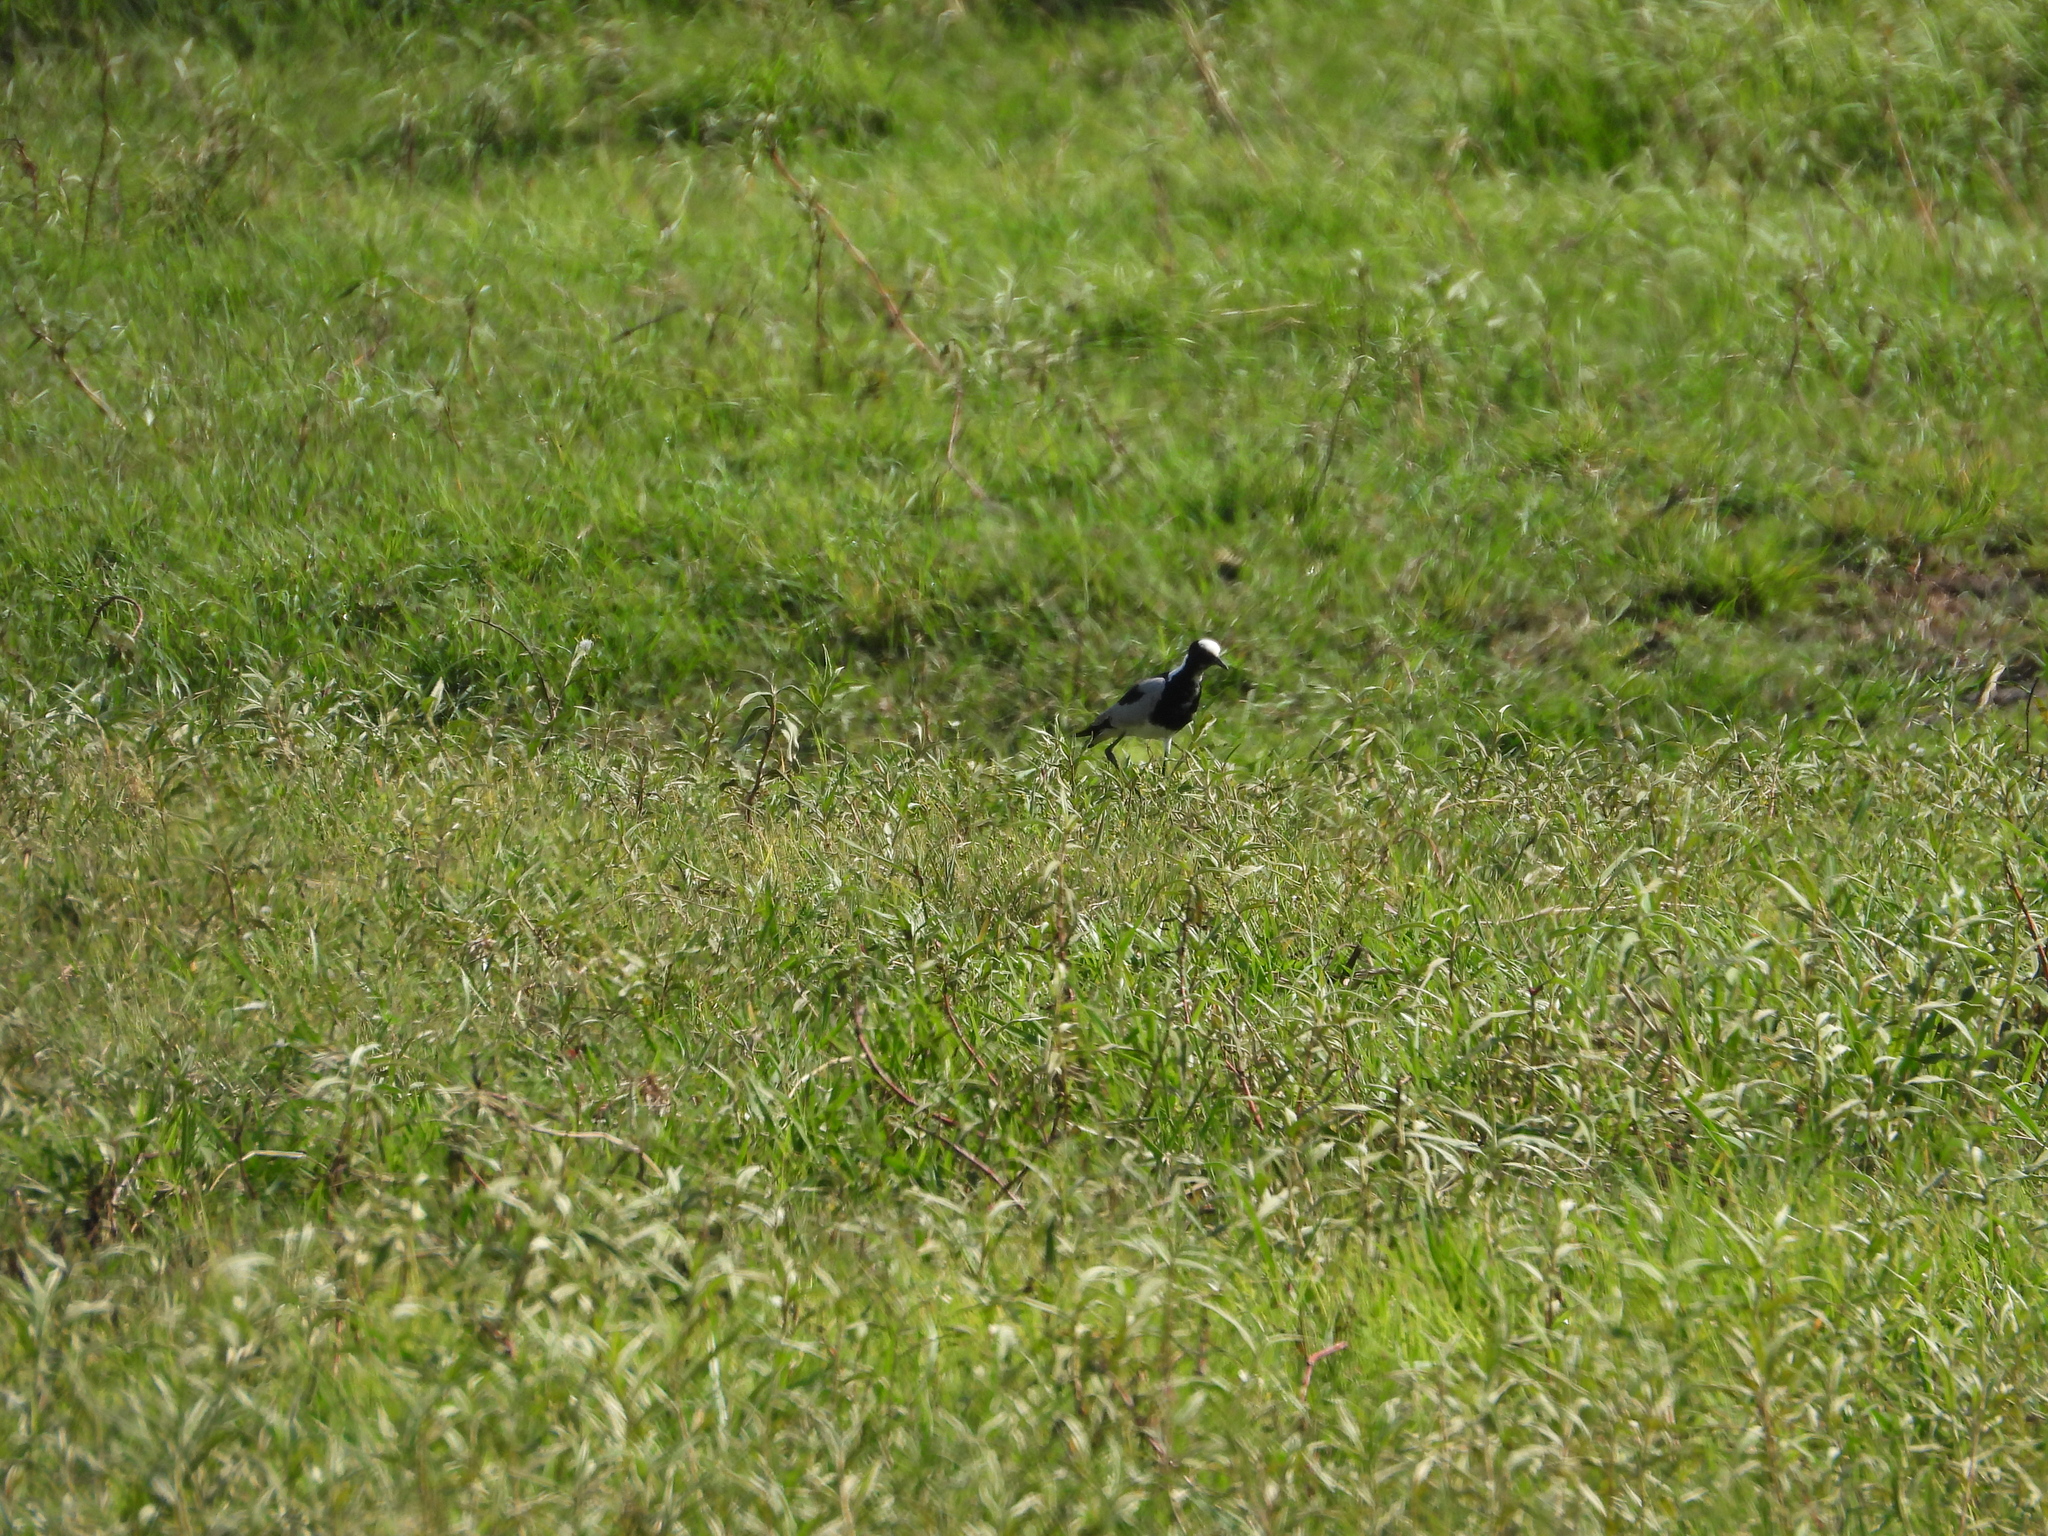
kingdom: Animalia
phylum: Chordata
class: Aves
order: Charadriiformes
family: Charadriidae
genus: Vanellus
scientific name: Vanellus armatus
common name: Blacksmith lapwing
